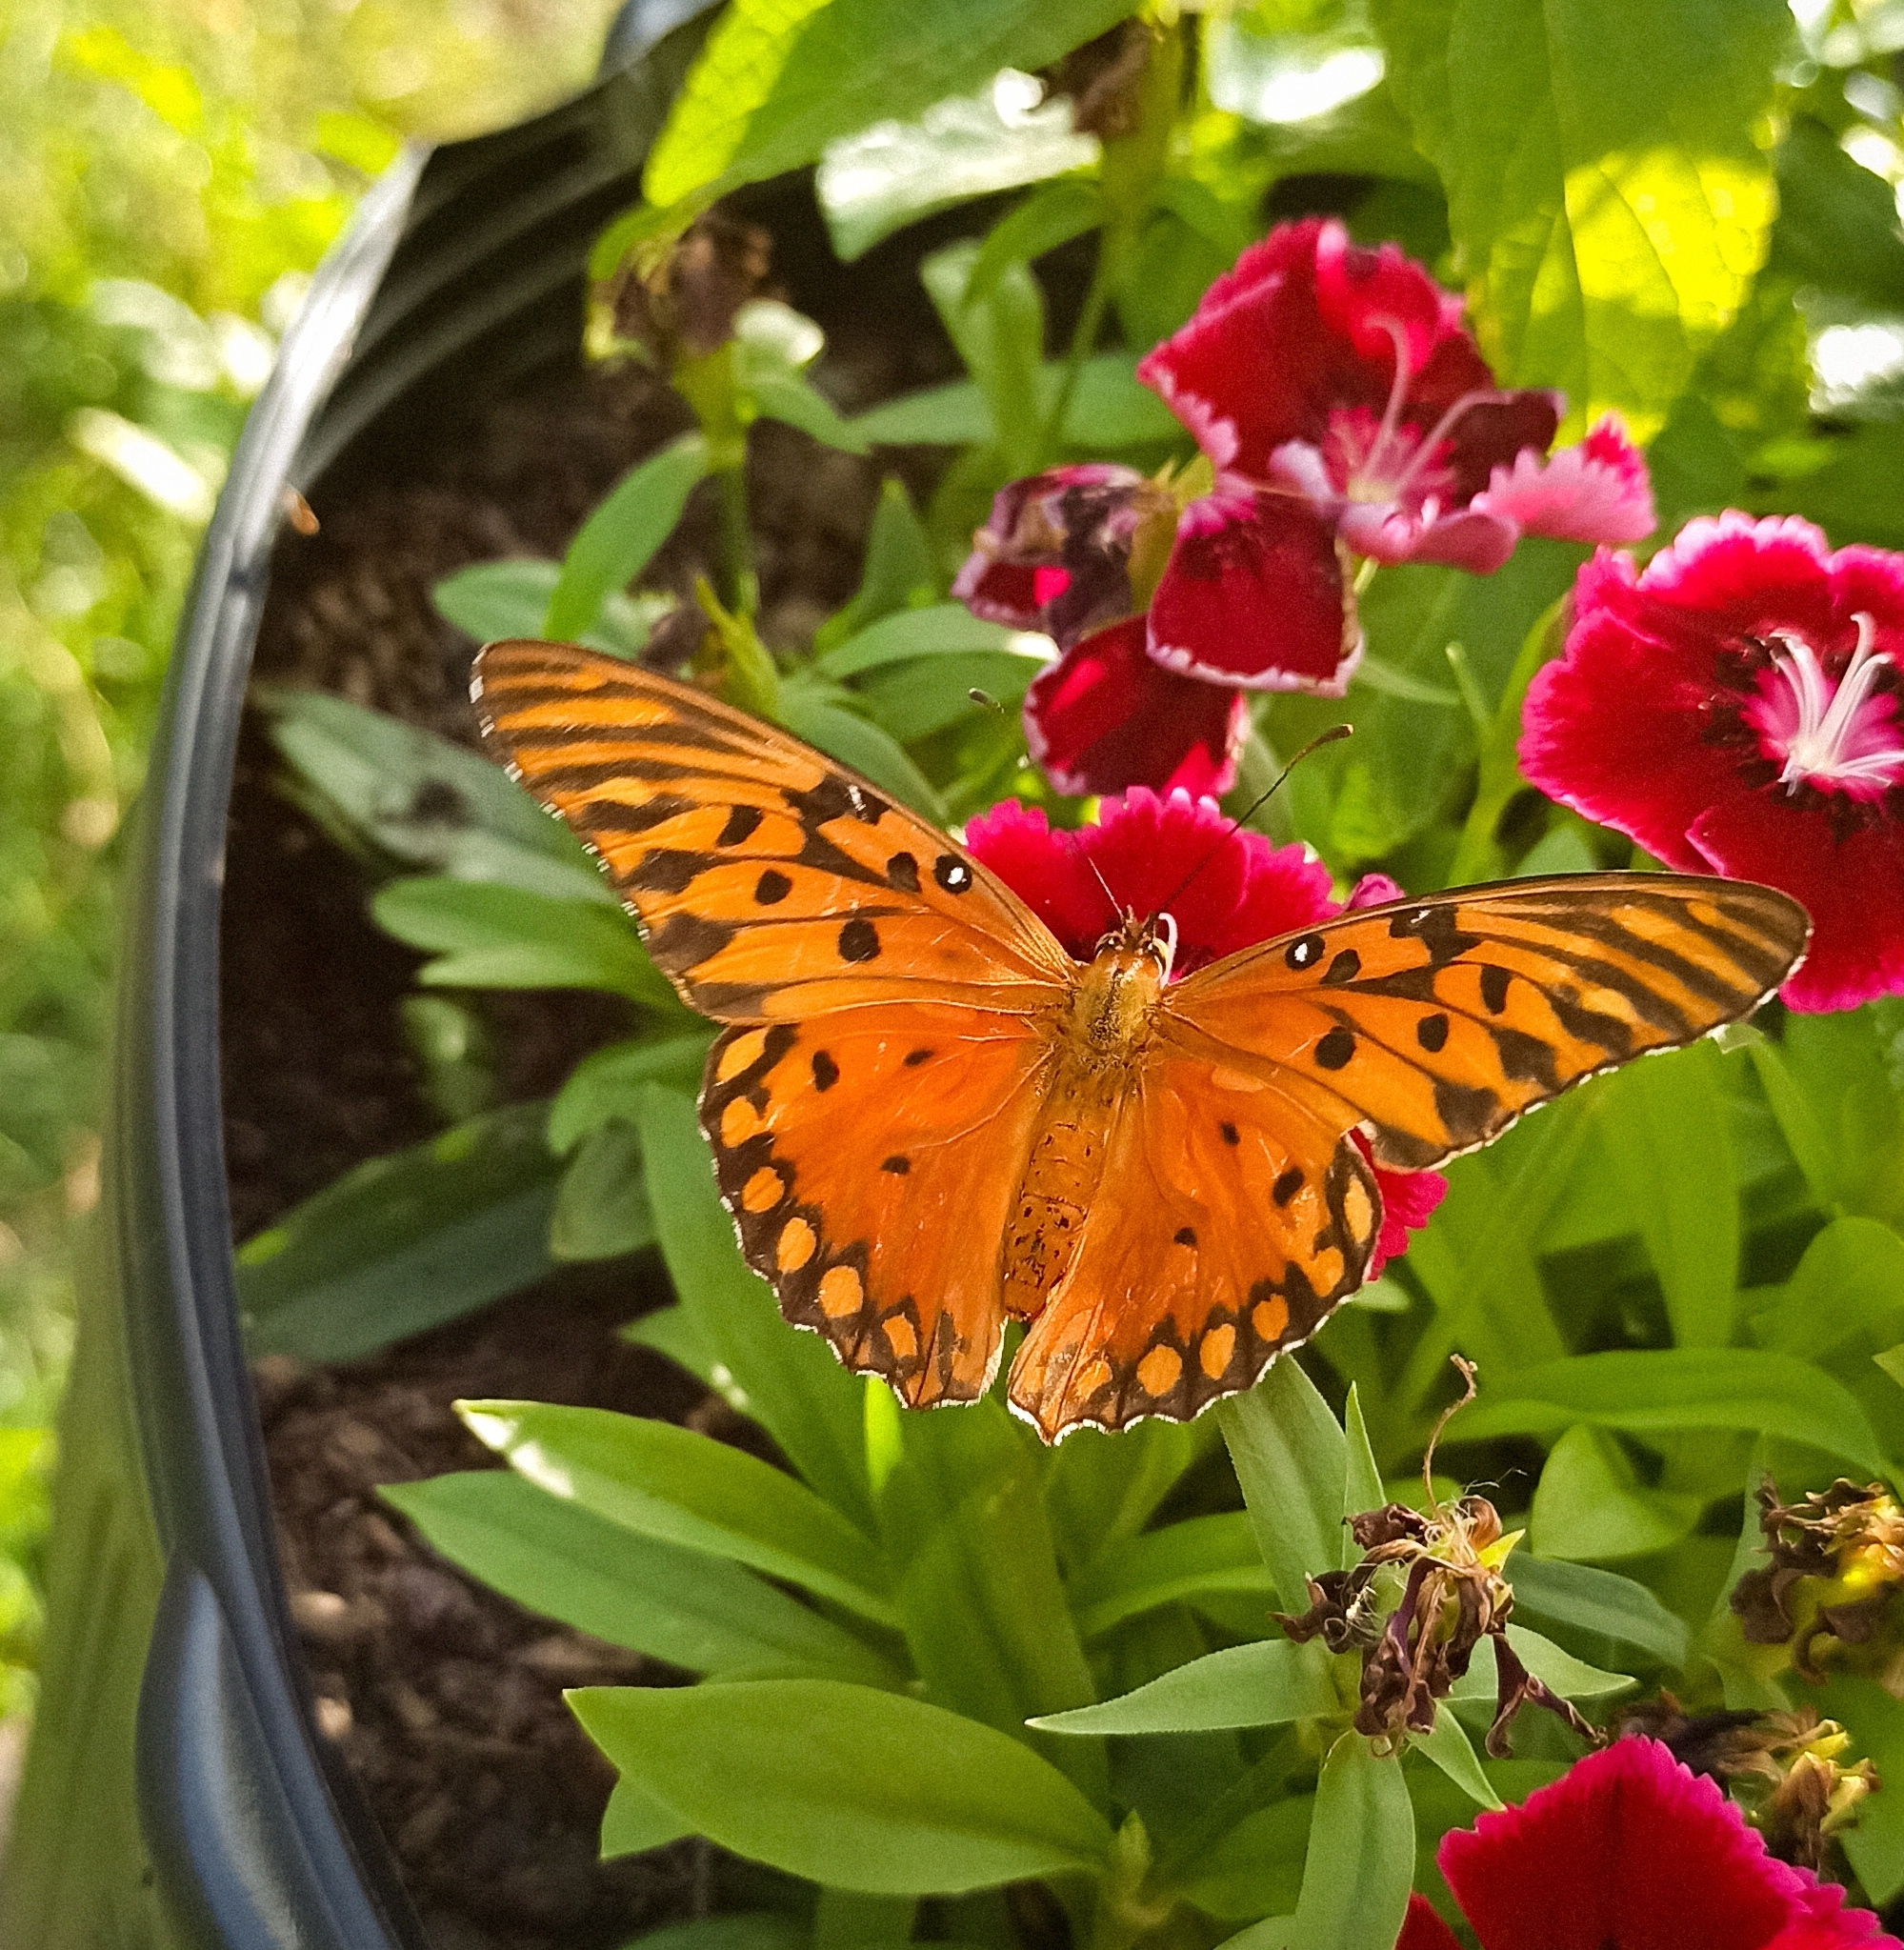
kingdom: Animalia
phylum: Arthropoda
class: Insecta
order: Lepidoptera
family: Nymphalidae
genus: Dione
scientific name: Dione vanillae
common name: Gulf fritillary
